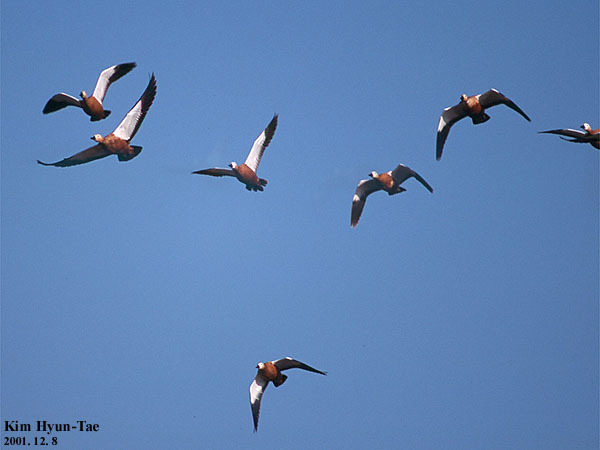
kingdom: Animalia
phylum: Chordata
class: Aves
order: Anseriformes
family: Anatidae
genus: Tadorna
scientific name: Tadorna ferruginea
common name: Ruddy shelduck
